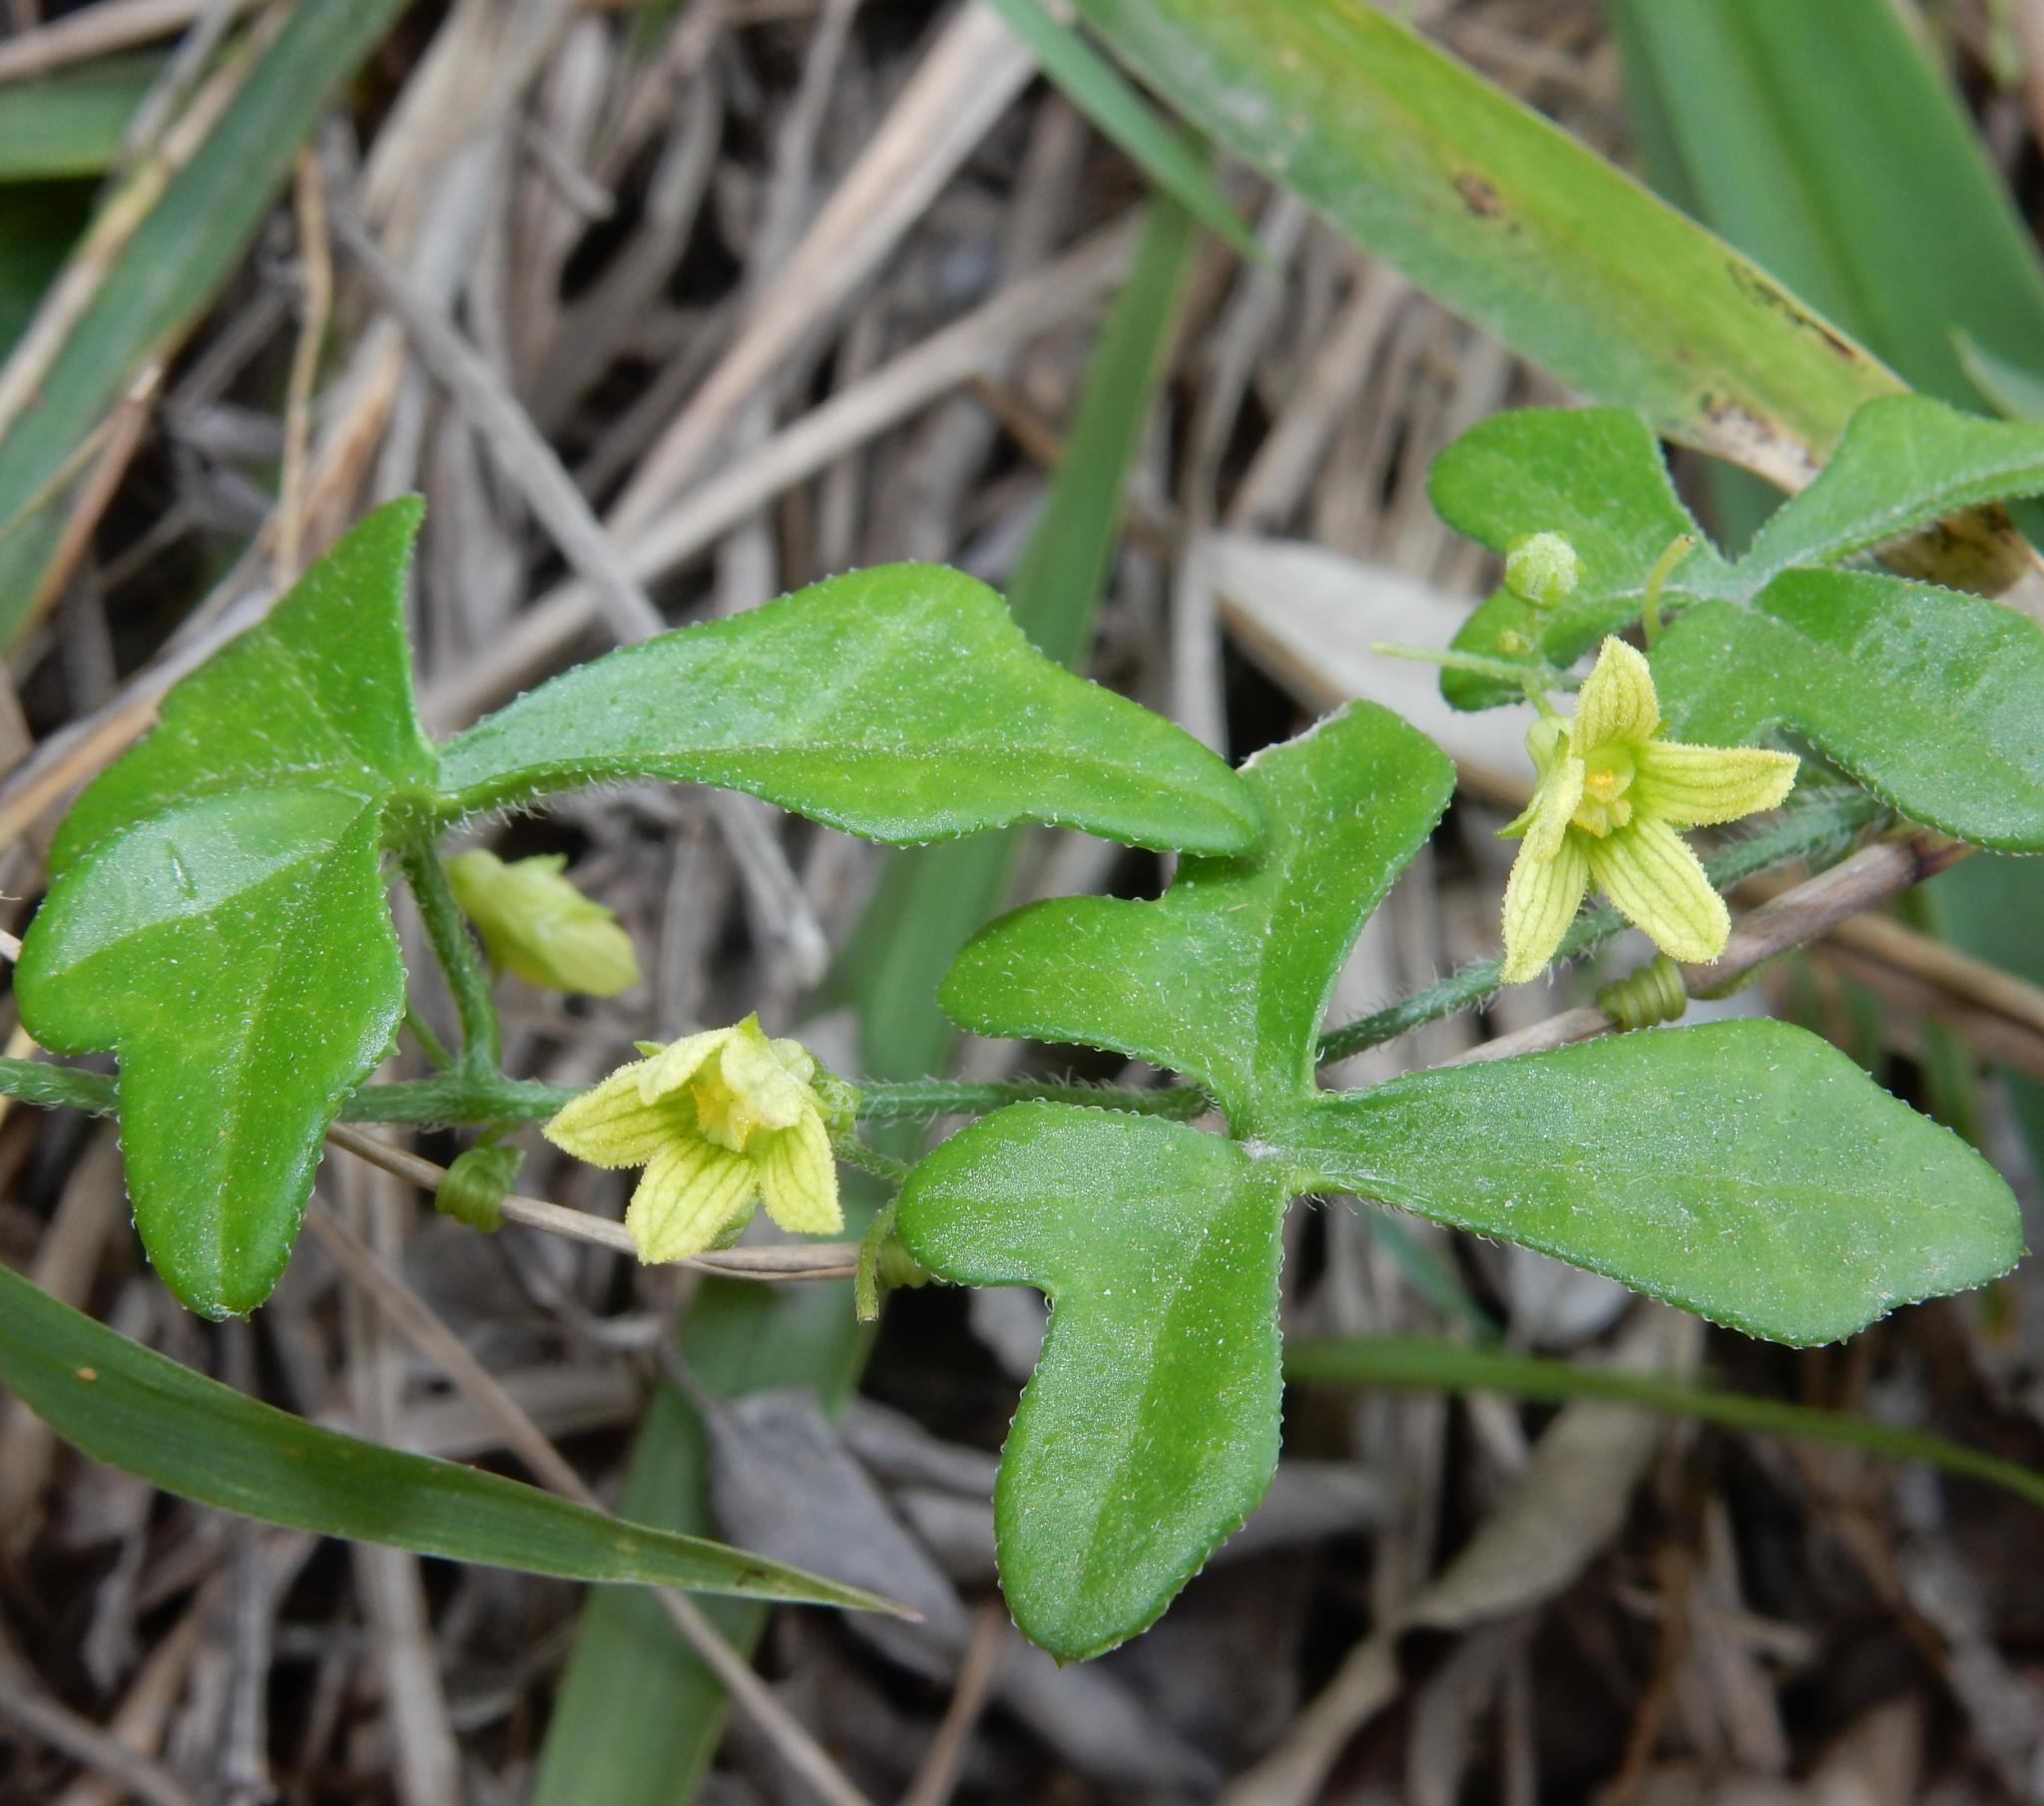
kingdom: Plantae
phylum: Tracheophyta
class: Magnoliopsida
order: Cucurbitales
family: Cucurbitaceae
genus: Kedrostis
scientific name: Kedrostis nana
